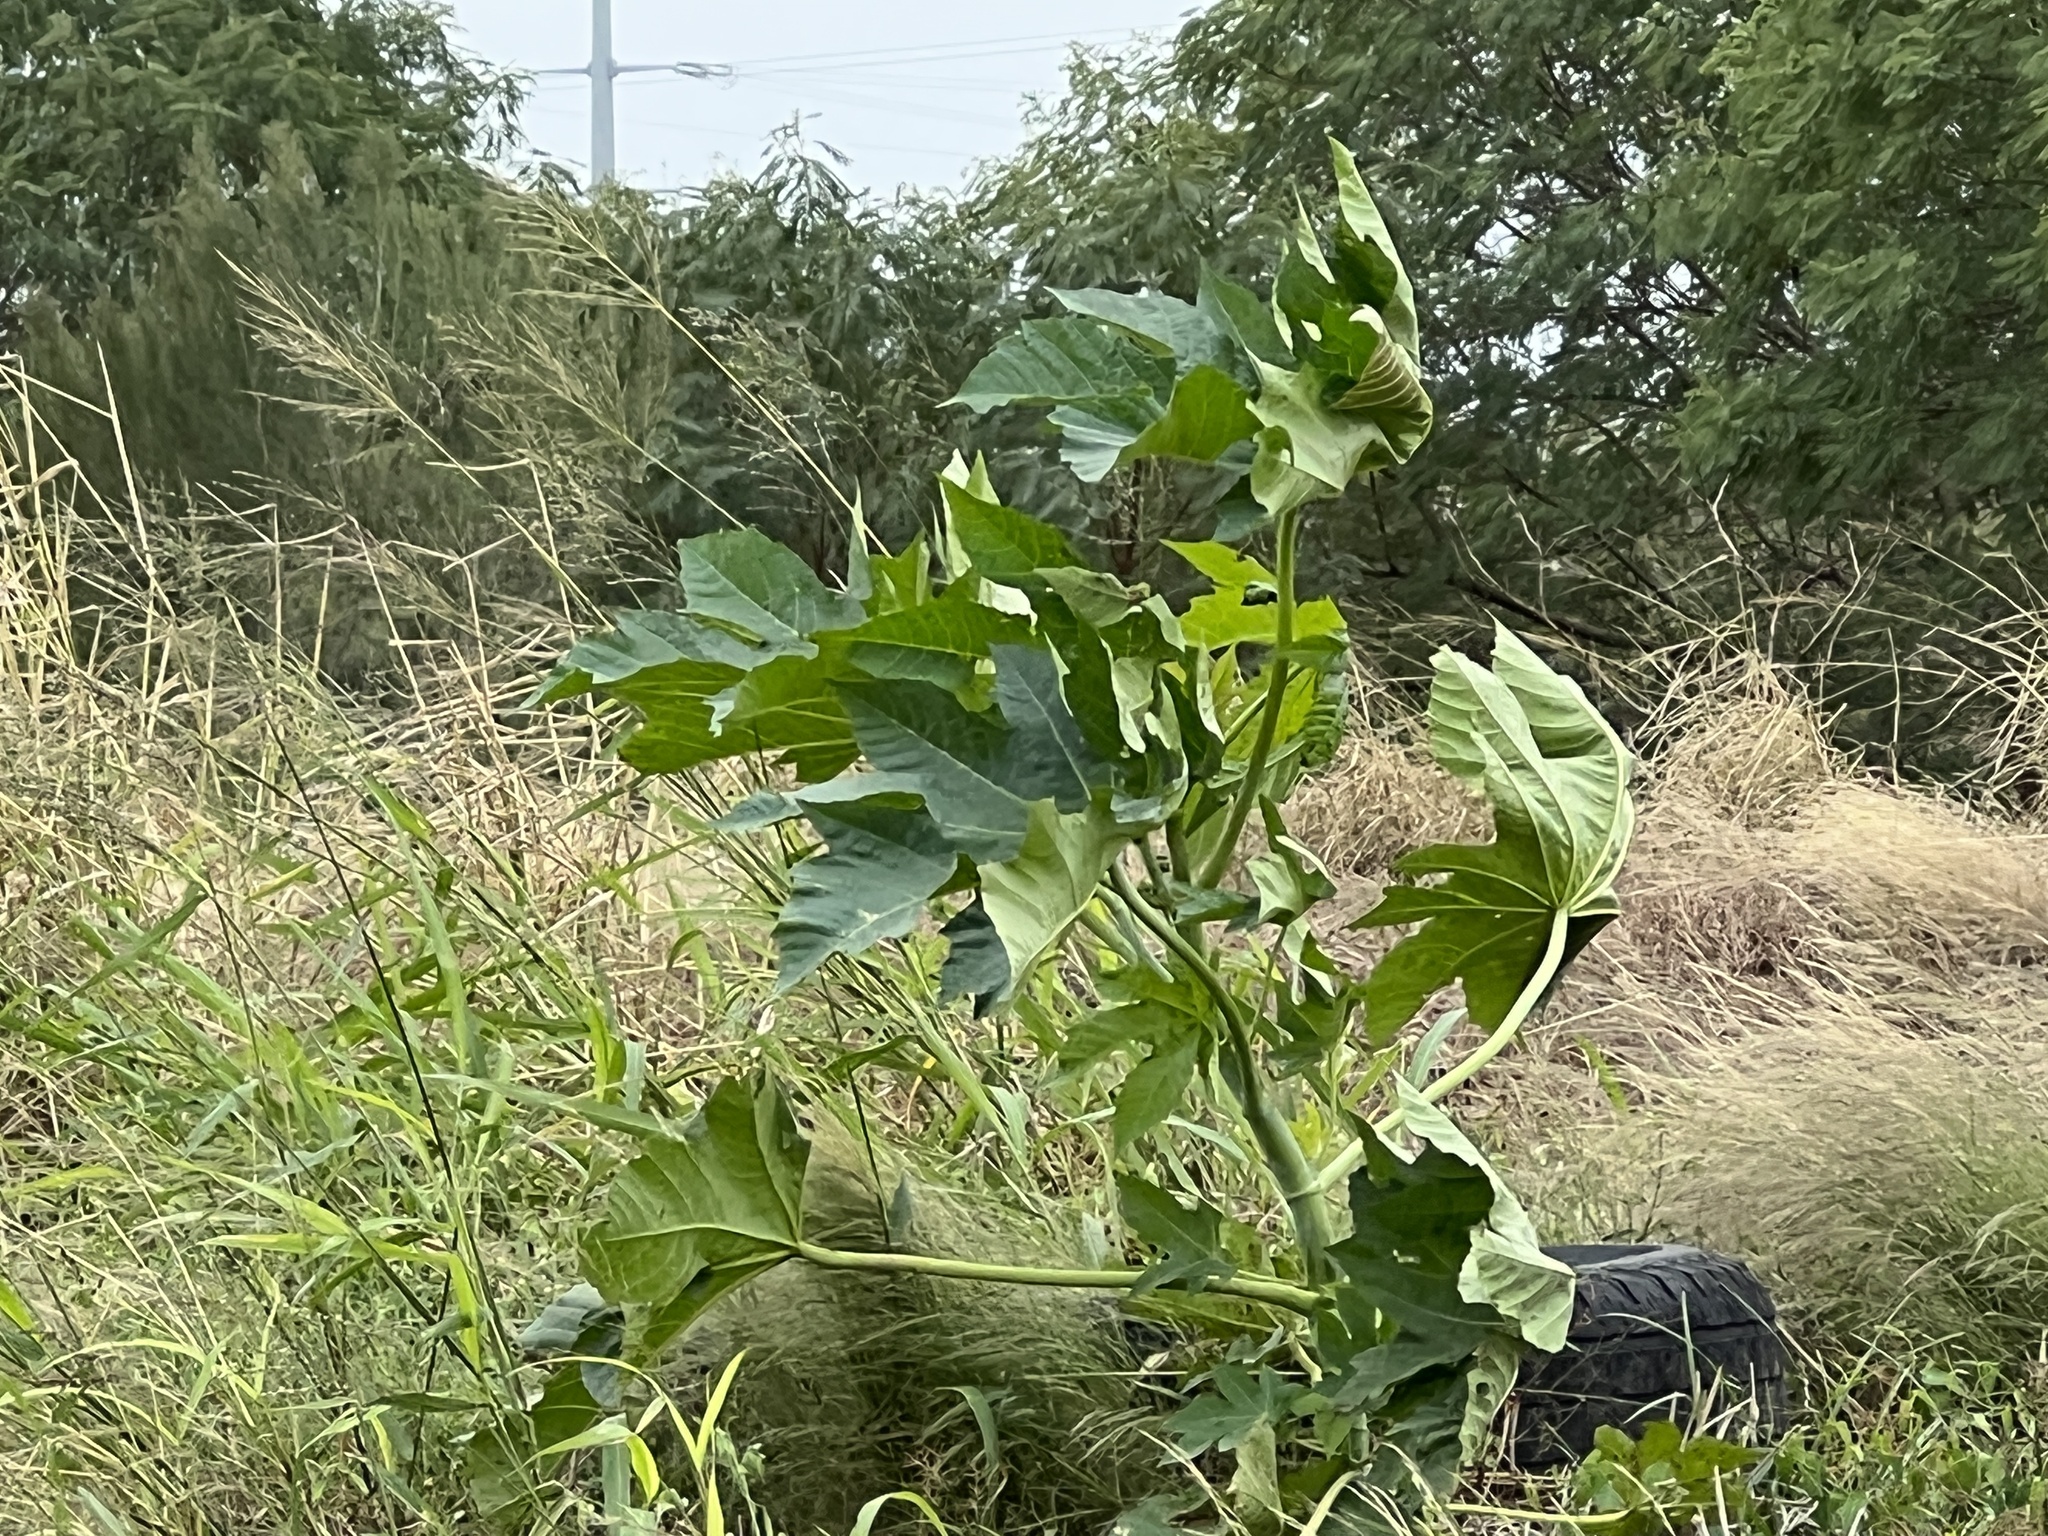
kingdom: Plantae
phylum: Tracheophyta
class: Magnoliopsida
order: Malpighiales
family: Euphorbiaceae
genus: Ricinus
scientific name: Ricinus communis
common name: Castor-oil-plant
